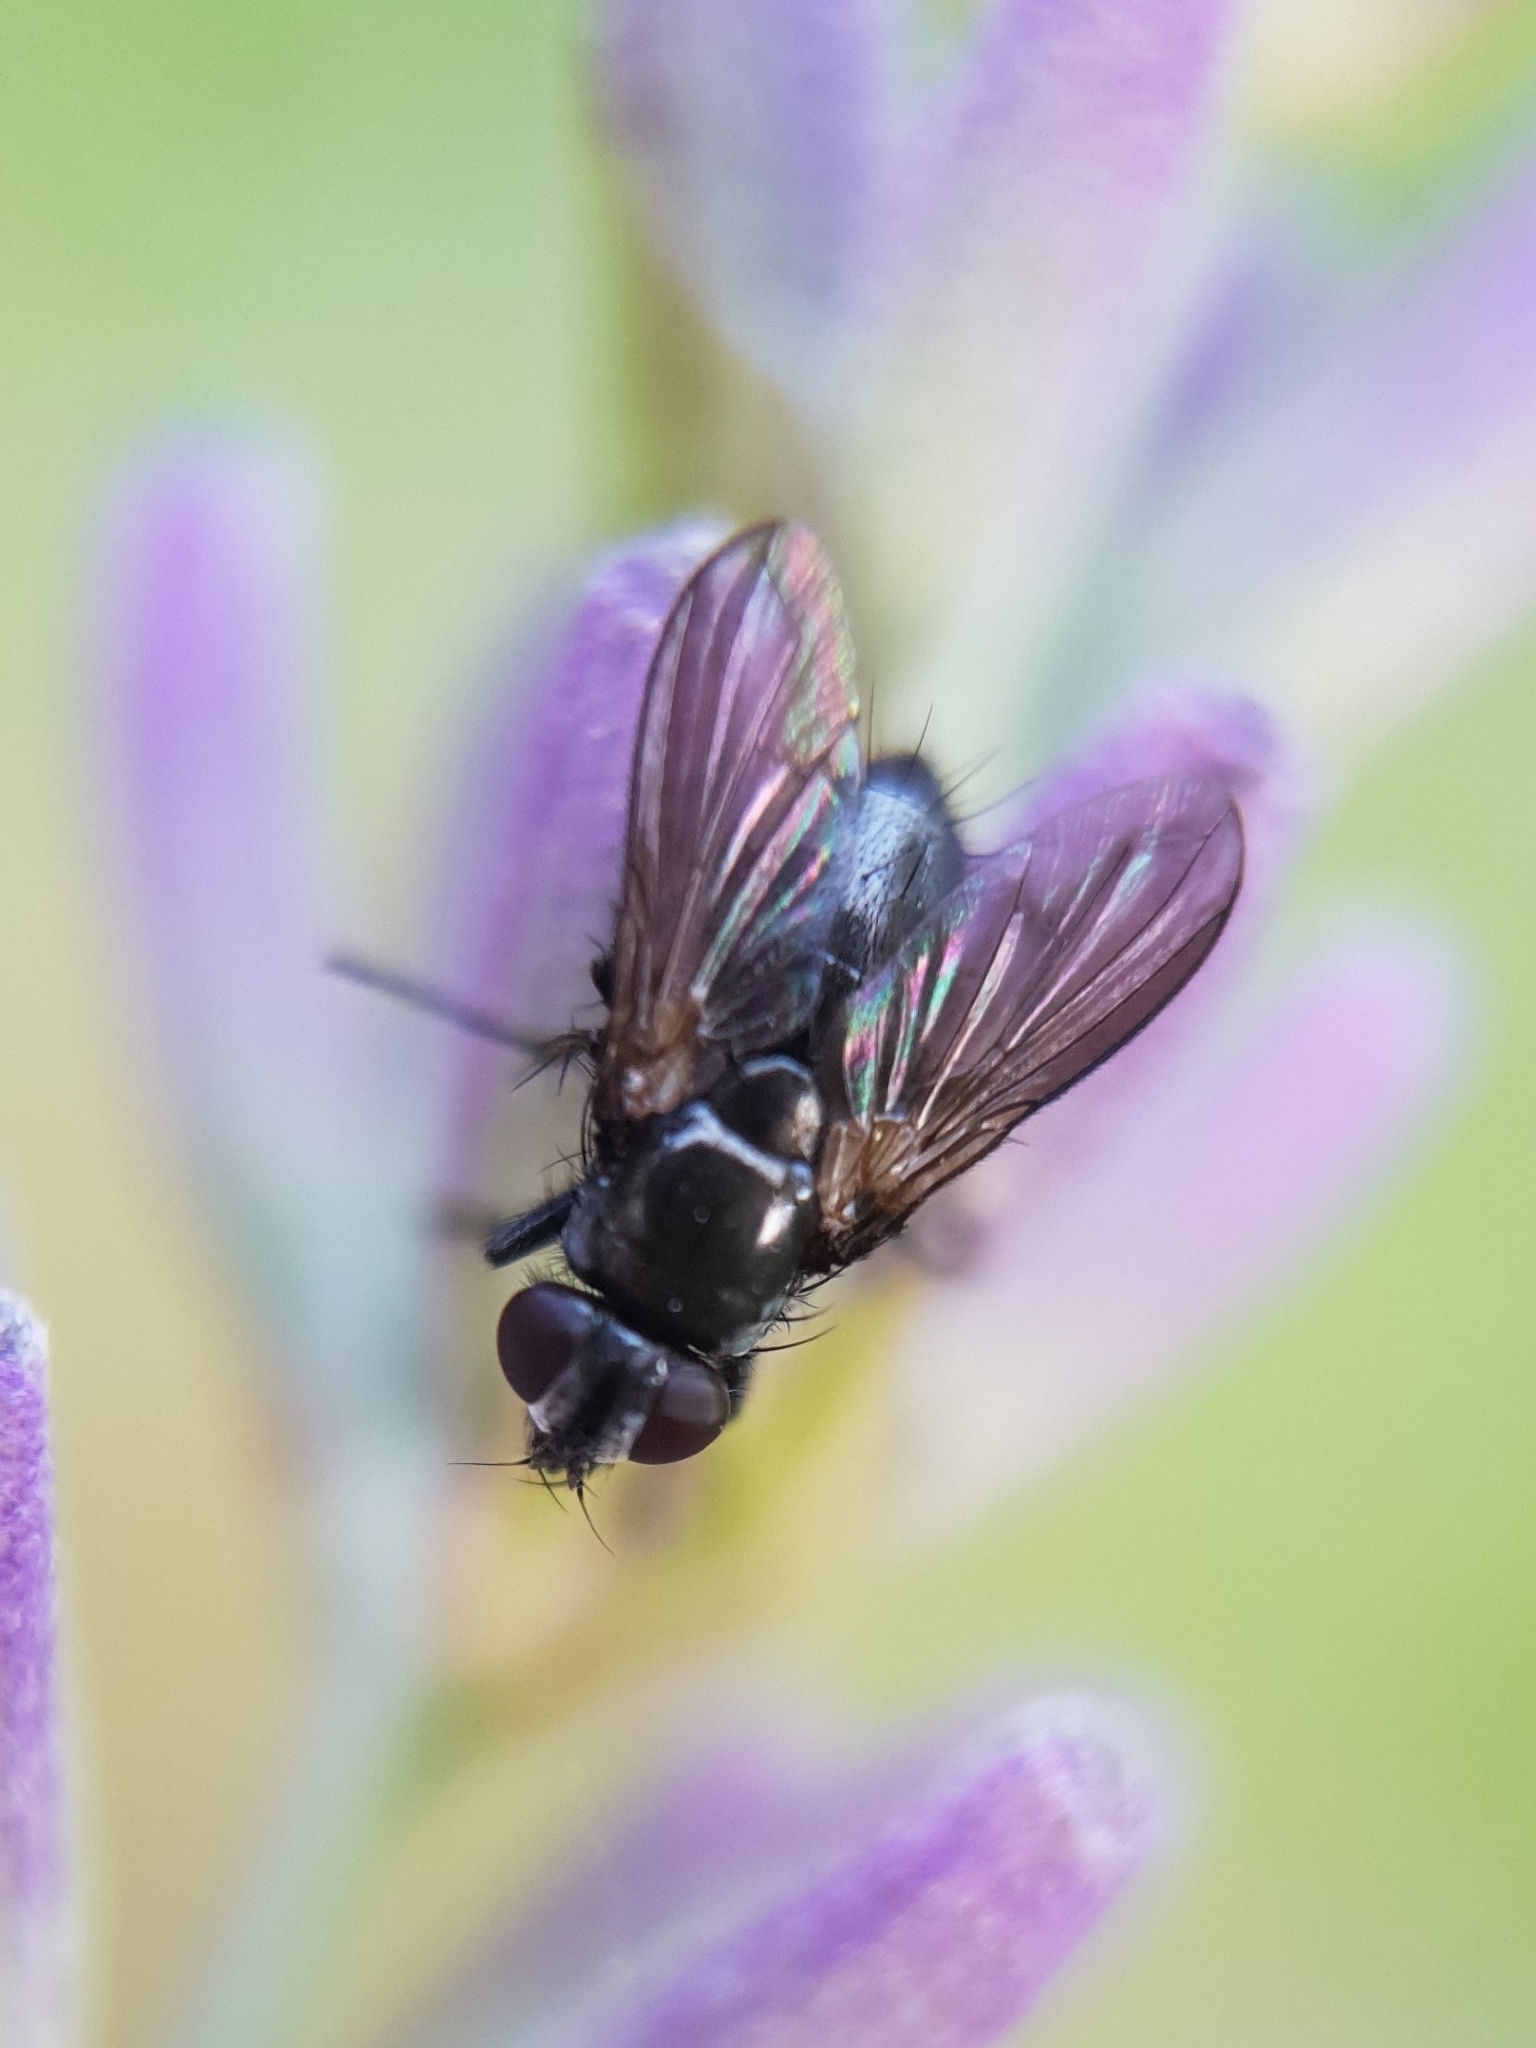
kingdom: Animalia
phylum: Arthropoda
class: Insecta
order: Diptera
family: Calliphoridae
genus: Rhinophora
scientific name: Rhinophora lepida
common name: Pouting woodlouse-fly
